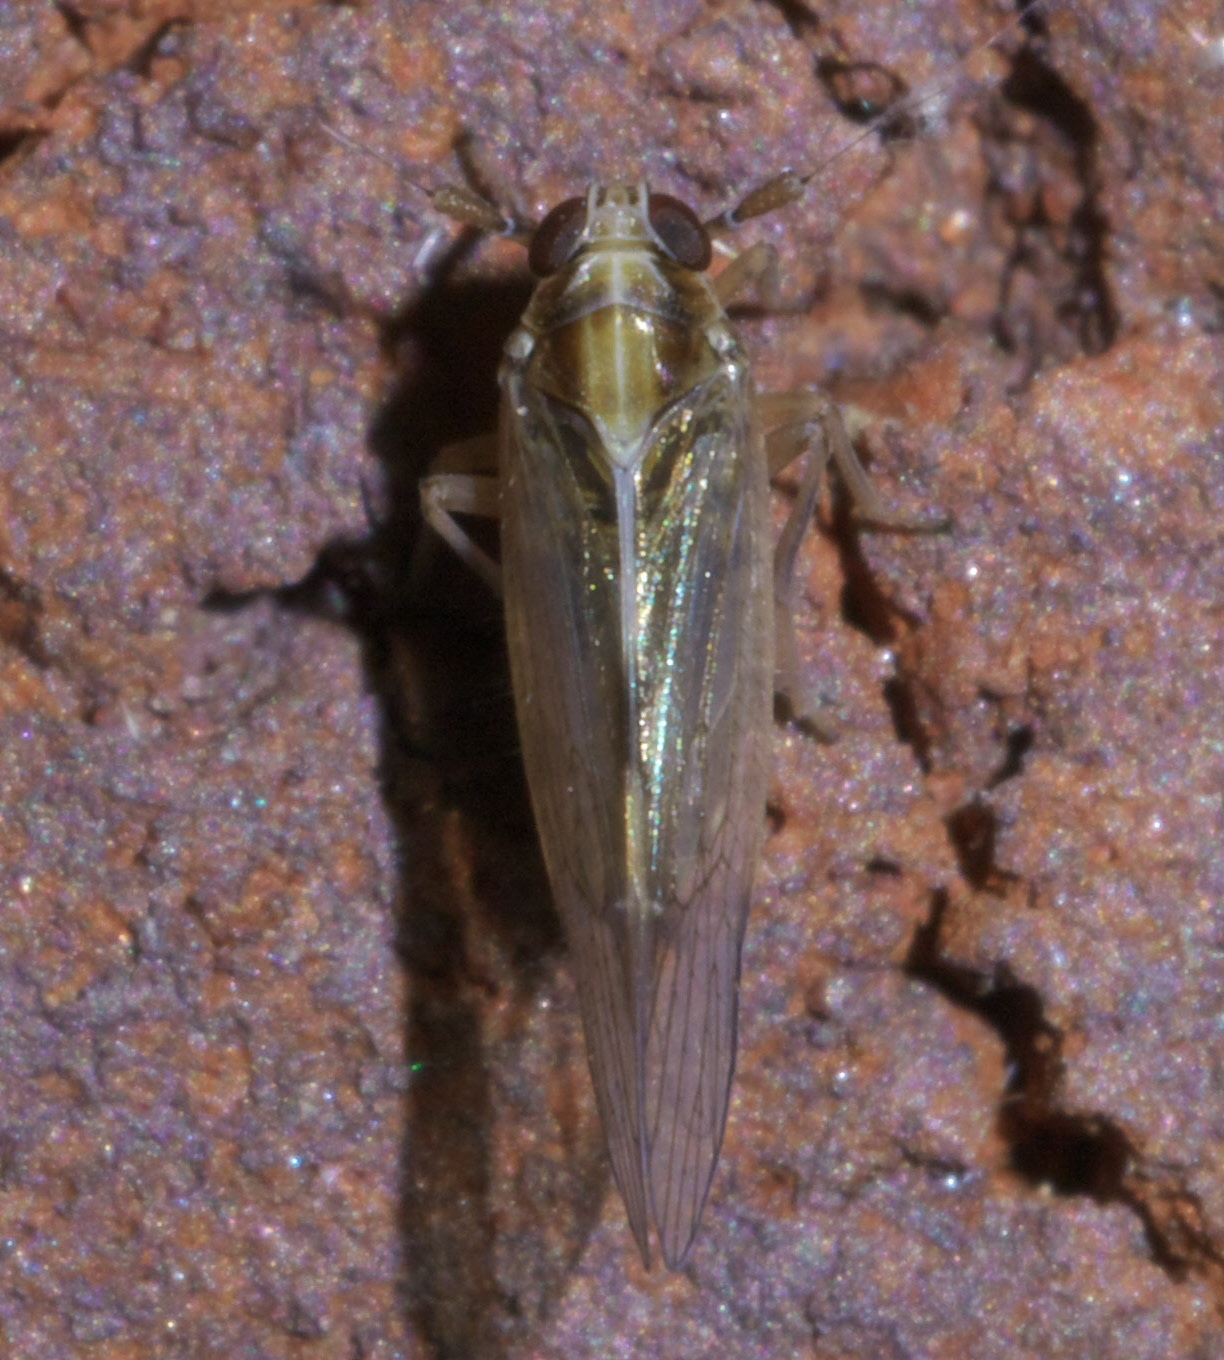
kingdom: Animalia
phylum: Arthropoda
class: Insecta
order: Hemiptera
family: Delphacidae
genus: Muellerianella
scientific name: Muellerianella laminalis
